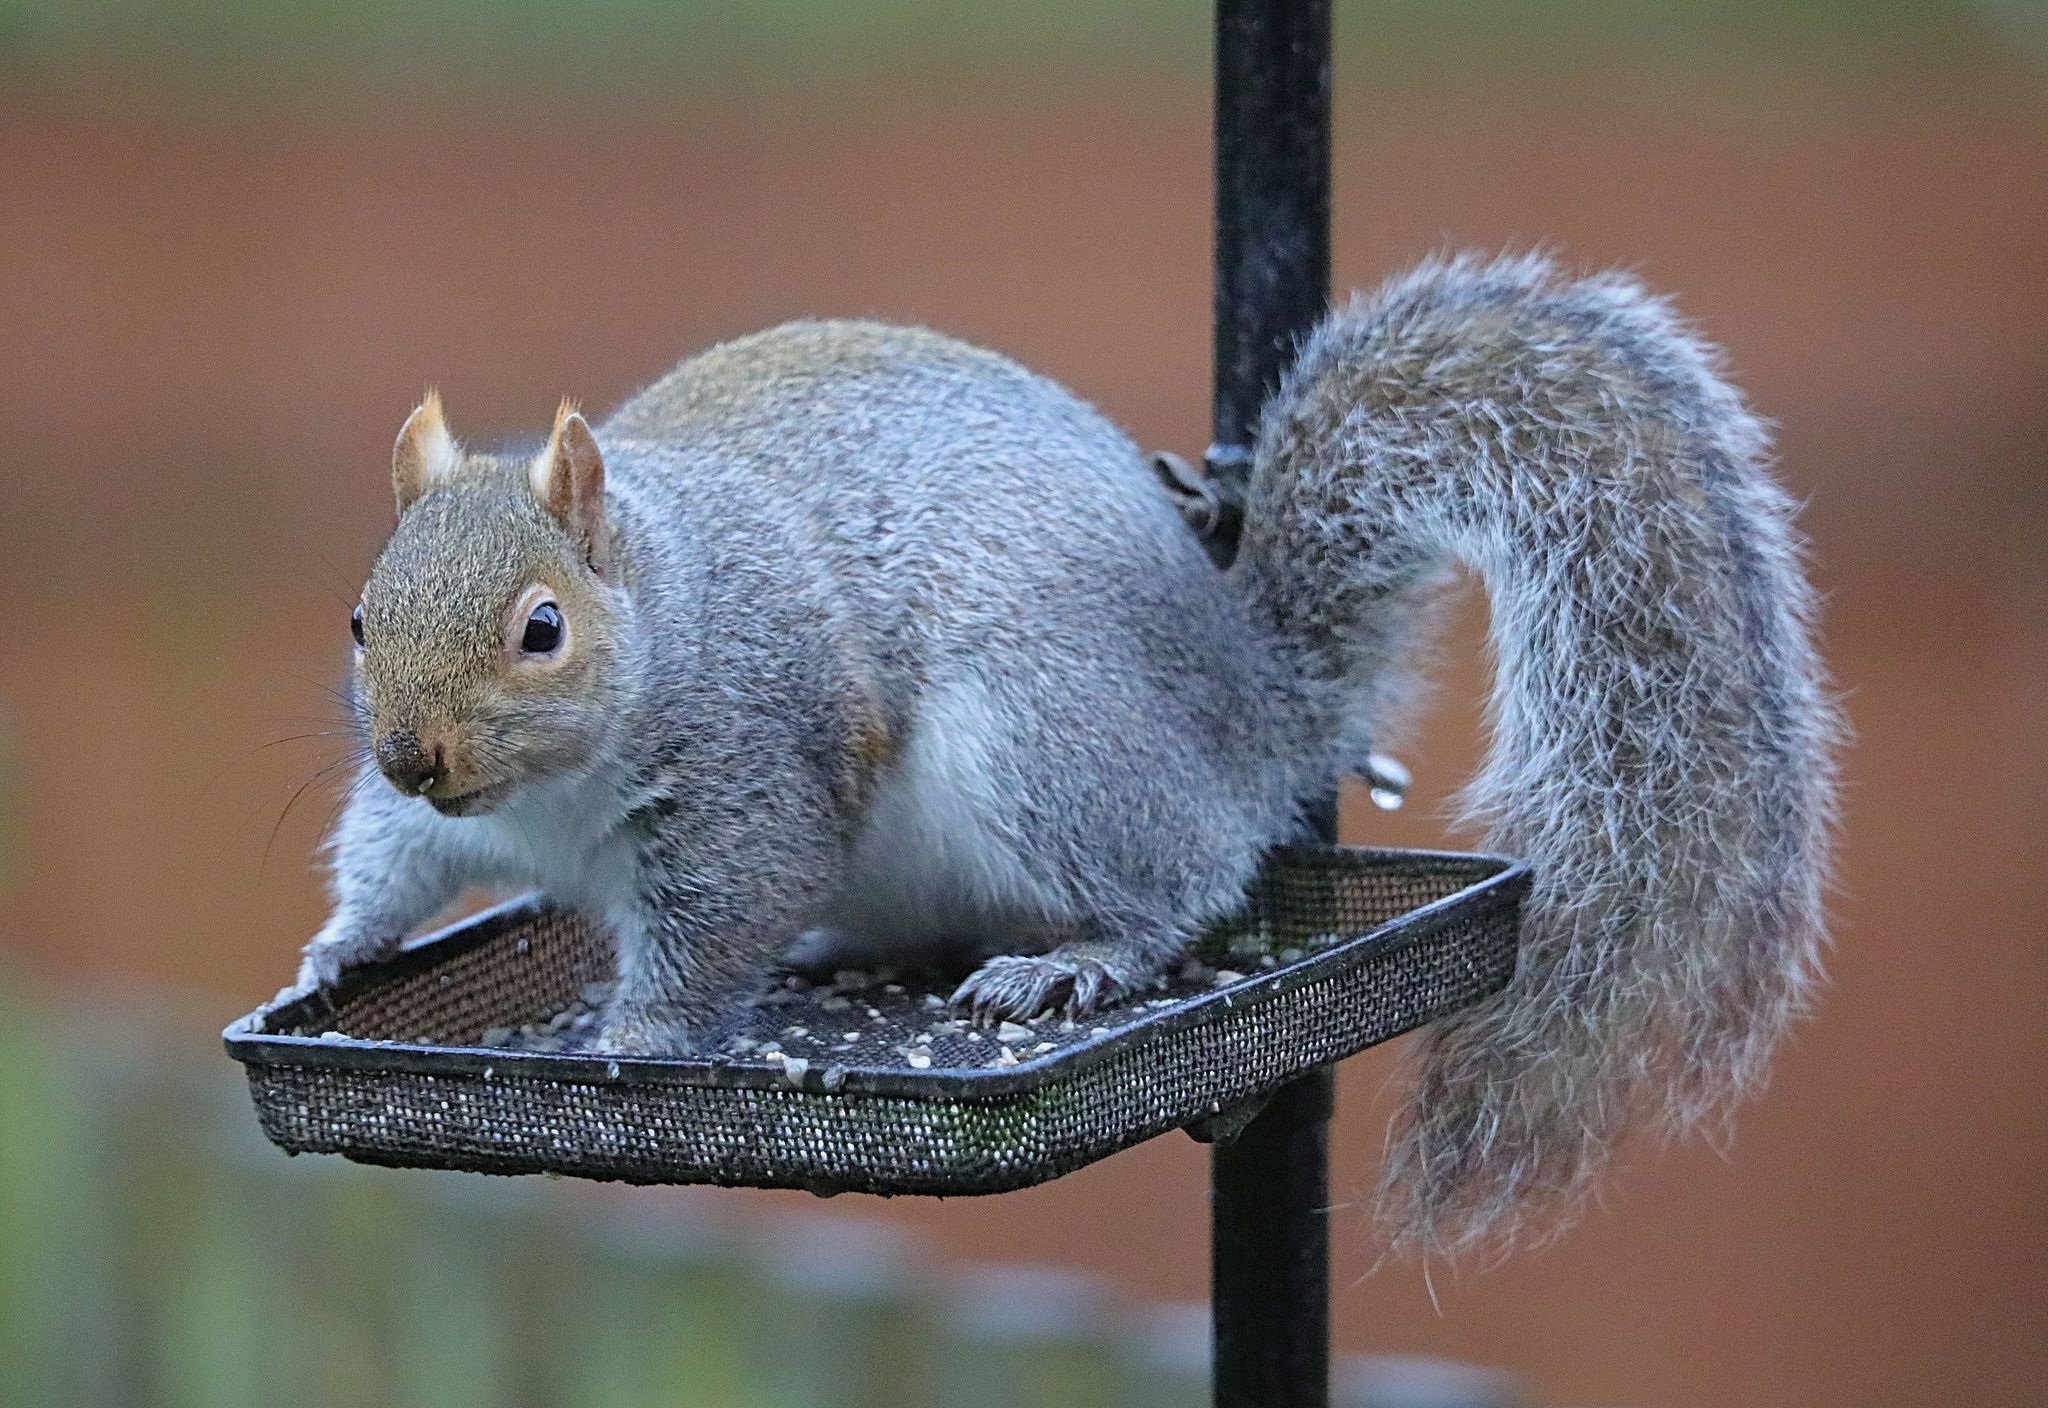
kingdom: Animalia
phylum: Chordata
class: Mammalia
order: Rodentia
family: Sciuridae
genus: Sciurus
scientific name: Sciurus carolinensis
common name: Eastern gray squirrel
